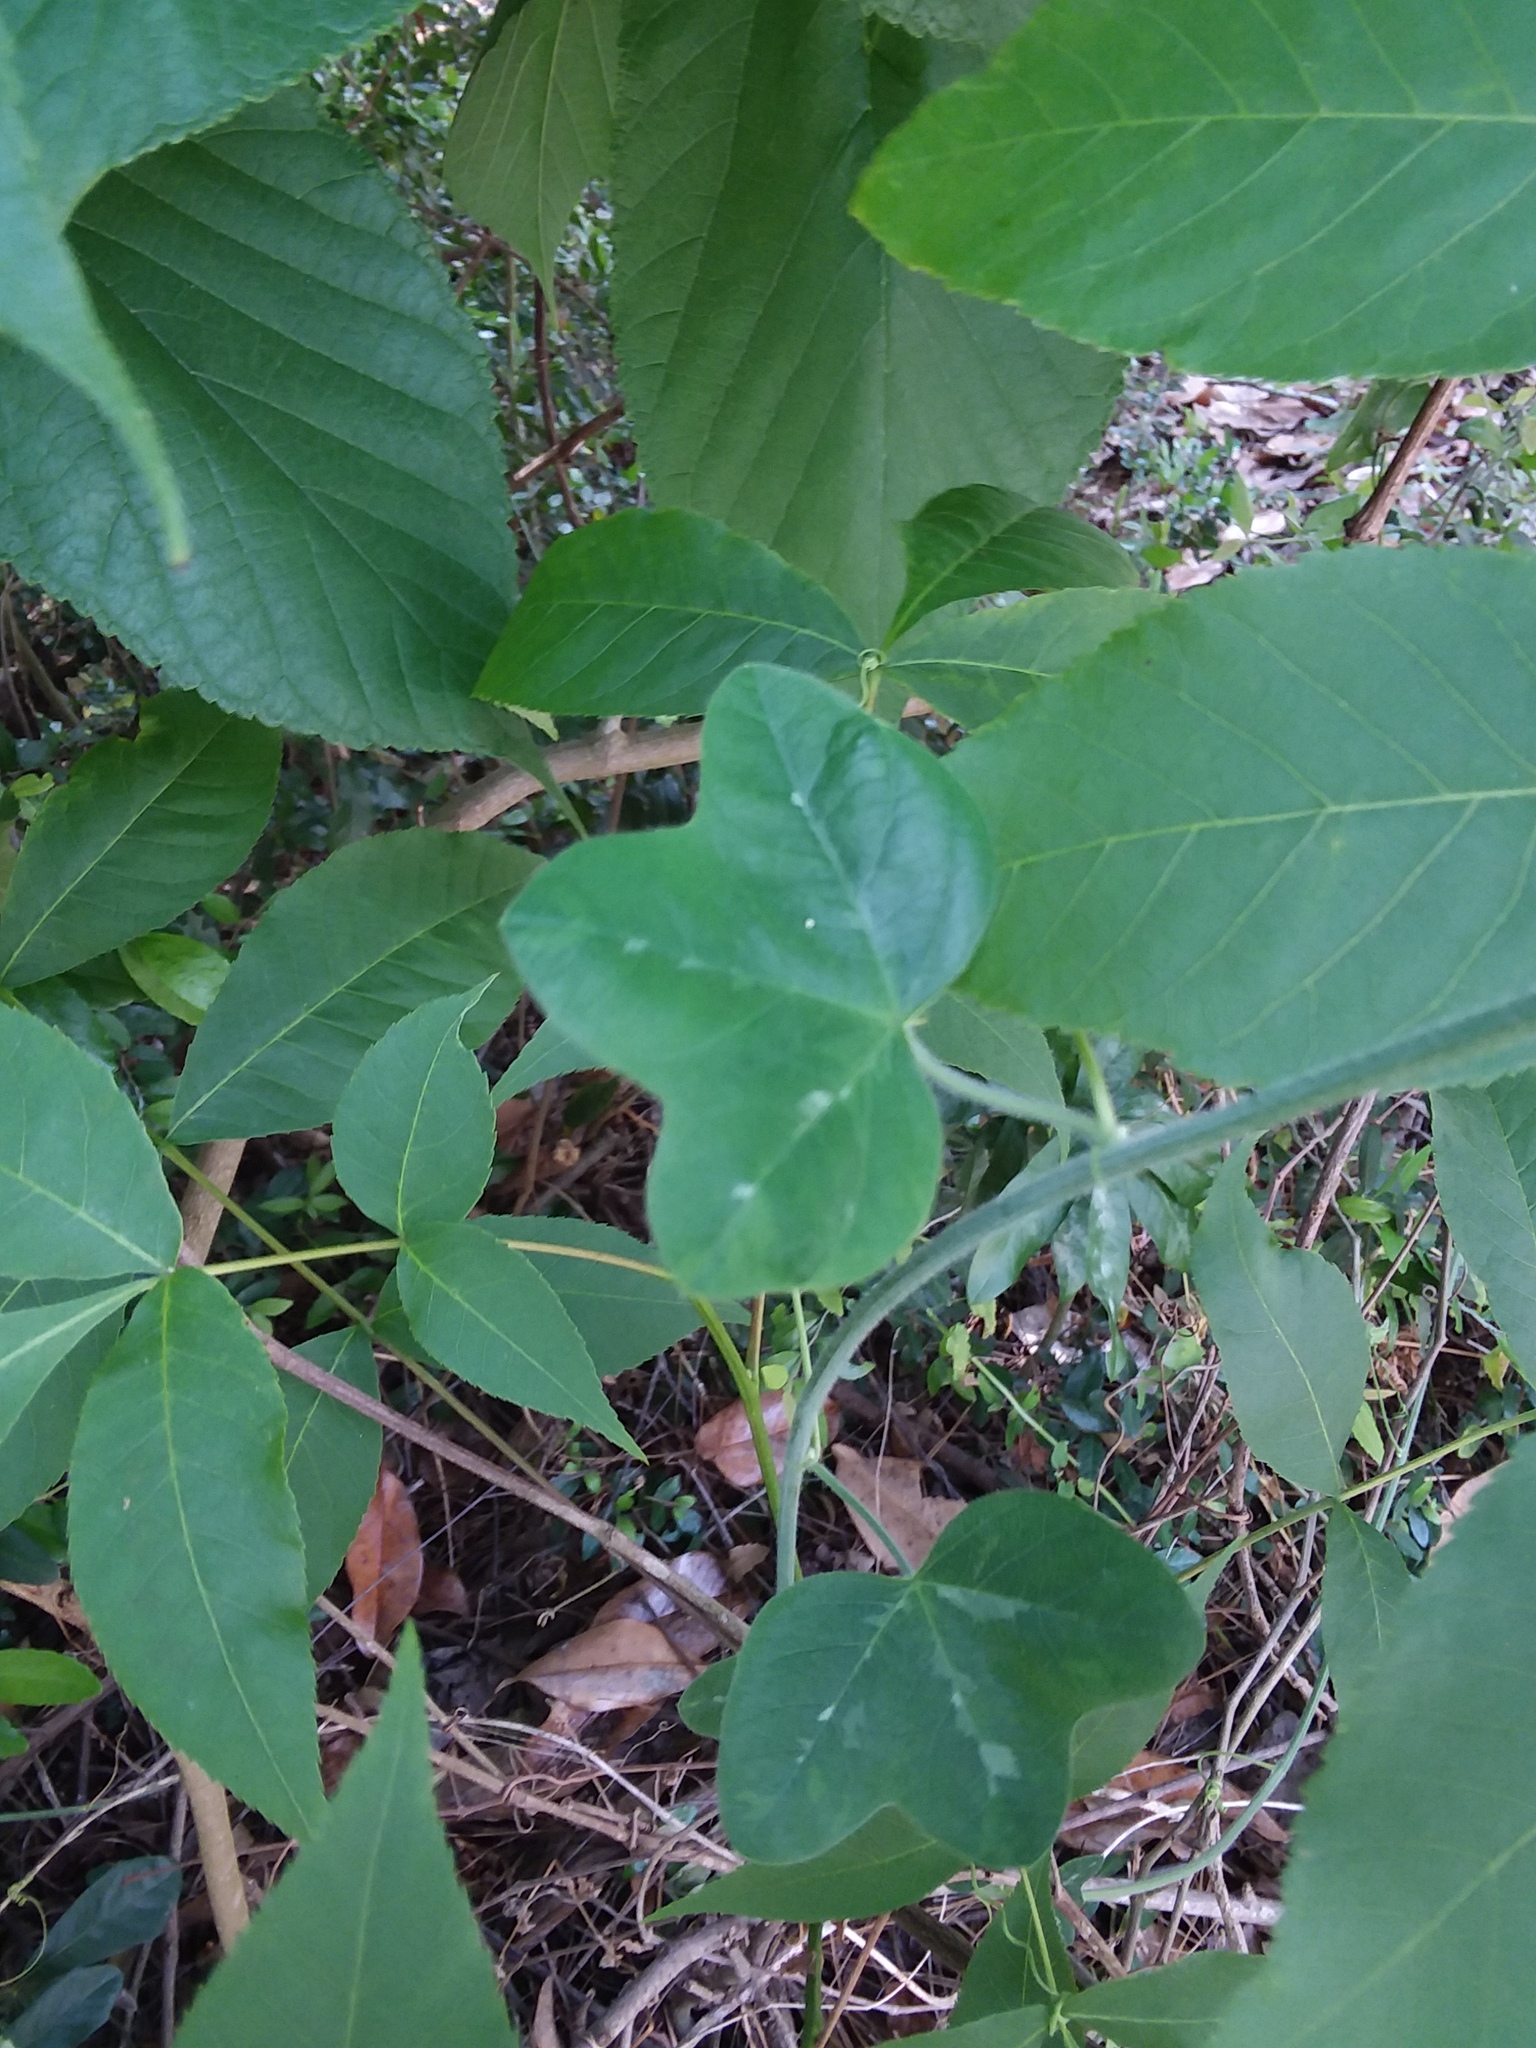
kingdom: Plantae
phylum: Tracheophyta
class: Magnoliopsida
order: Malpighiales
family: Passifloraceae
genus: Passiflora
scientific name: Passiflora lutea
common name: Yellow passionflower
